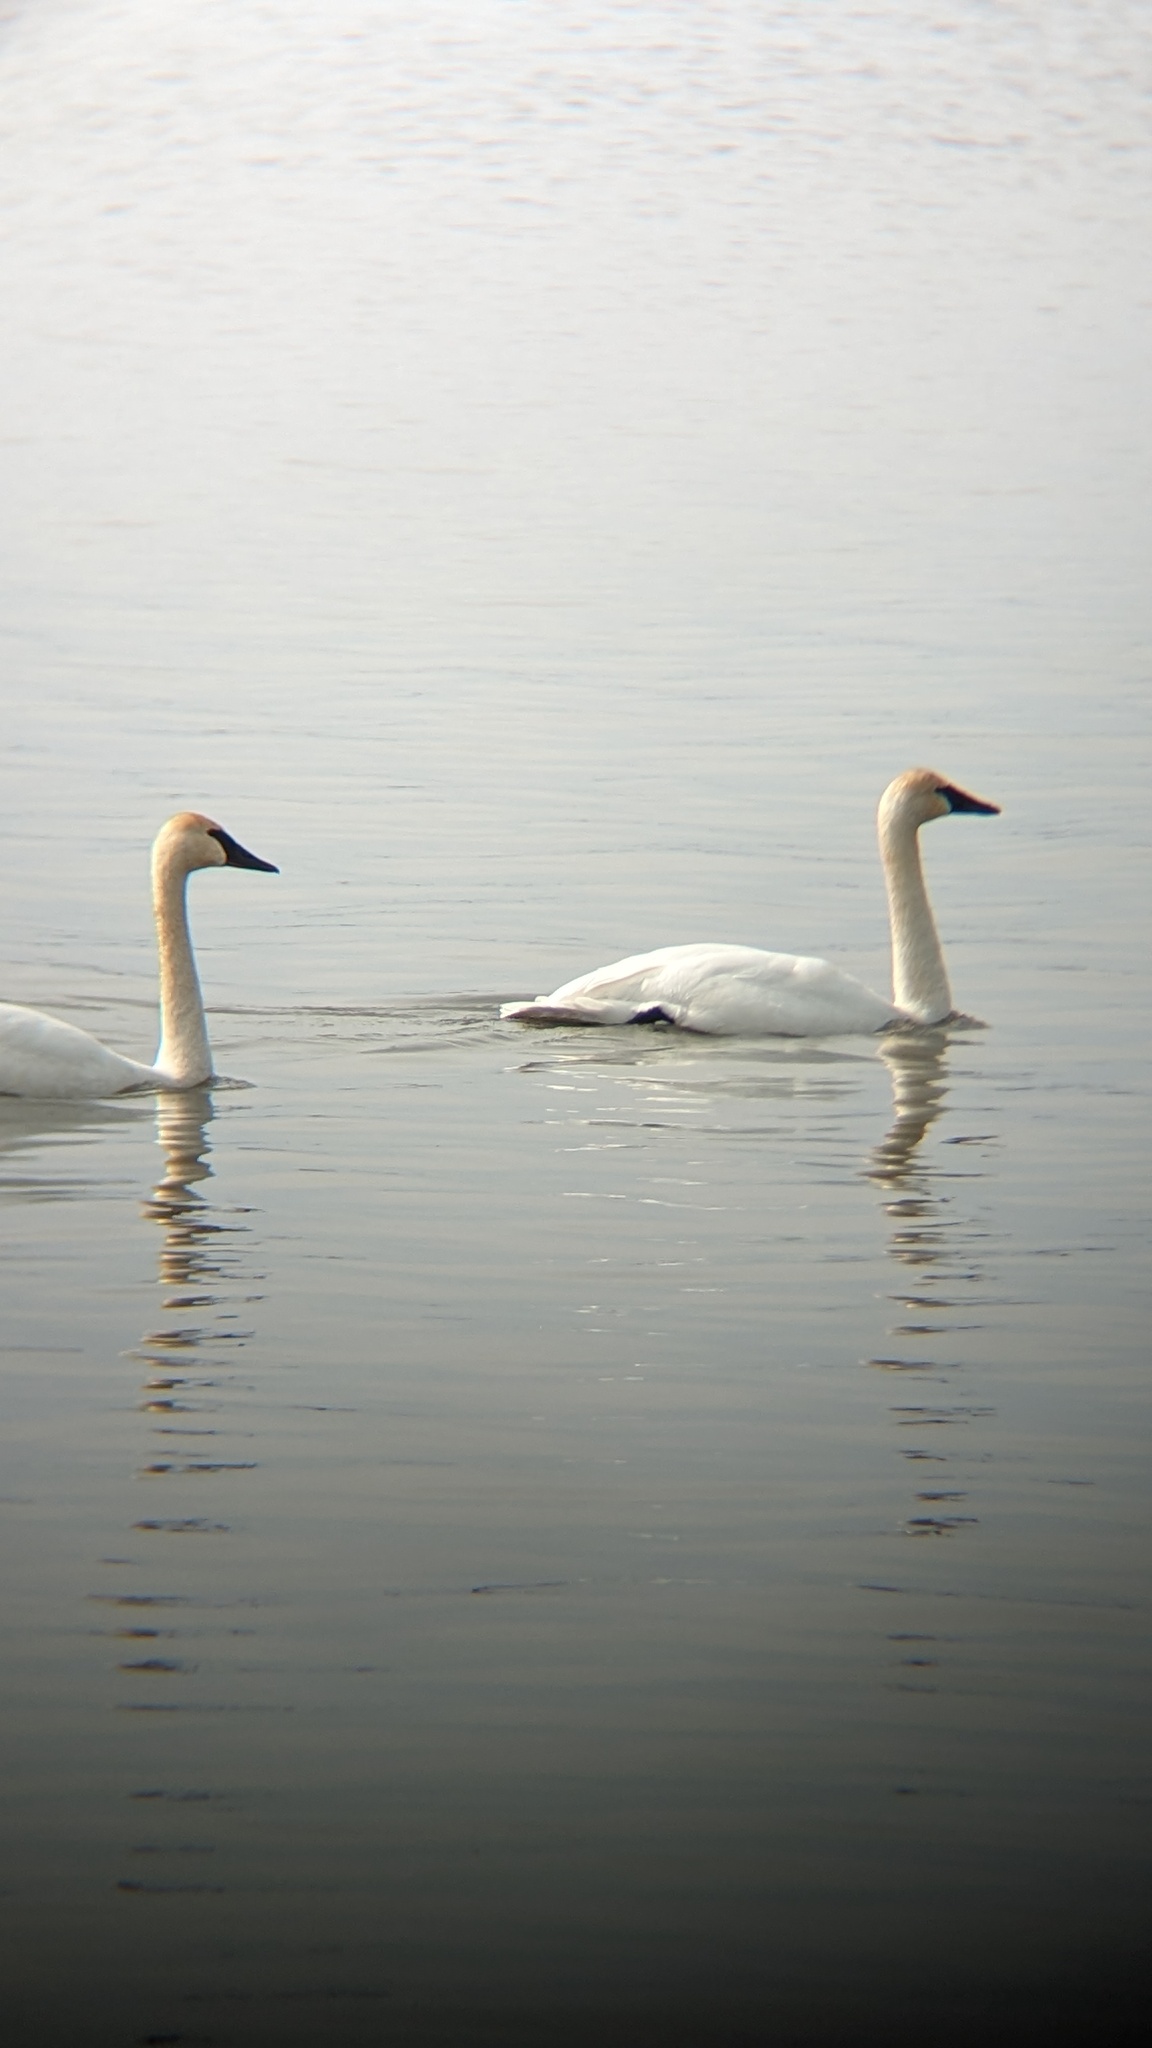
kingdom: Animalia
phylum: Chordata
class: Aves
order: Anseriformes
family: Anatidae
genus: Cygnus
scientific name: Cygnus buccinator
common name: Trumpeter swan
